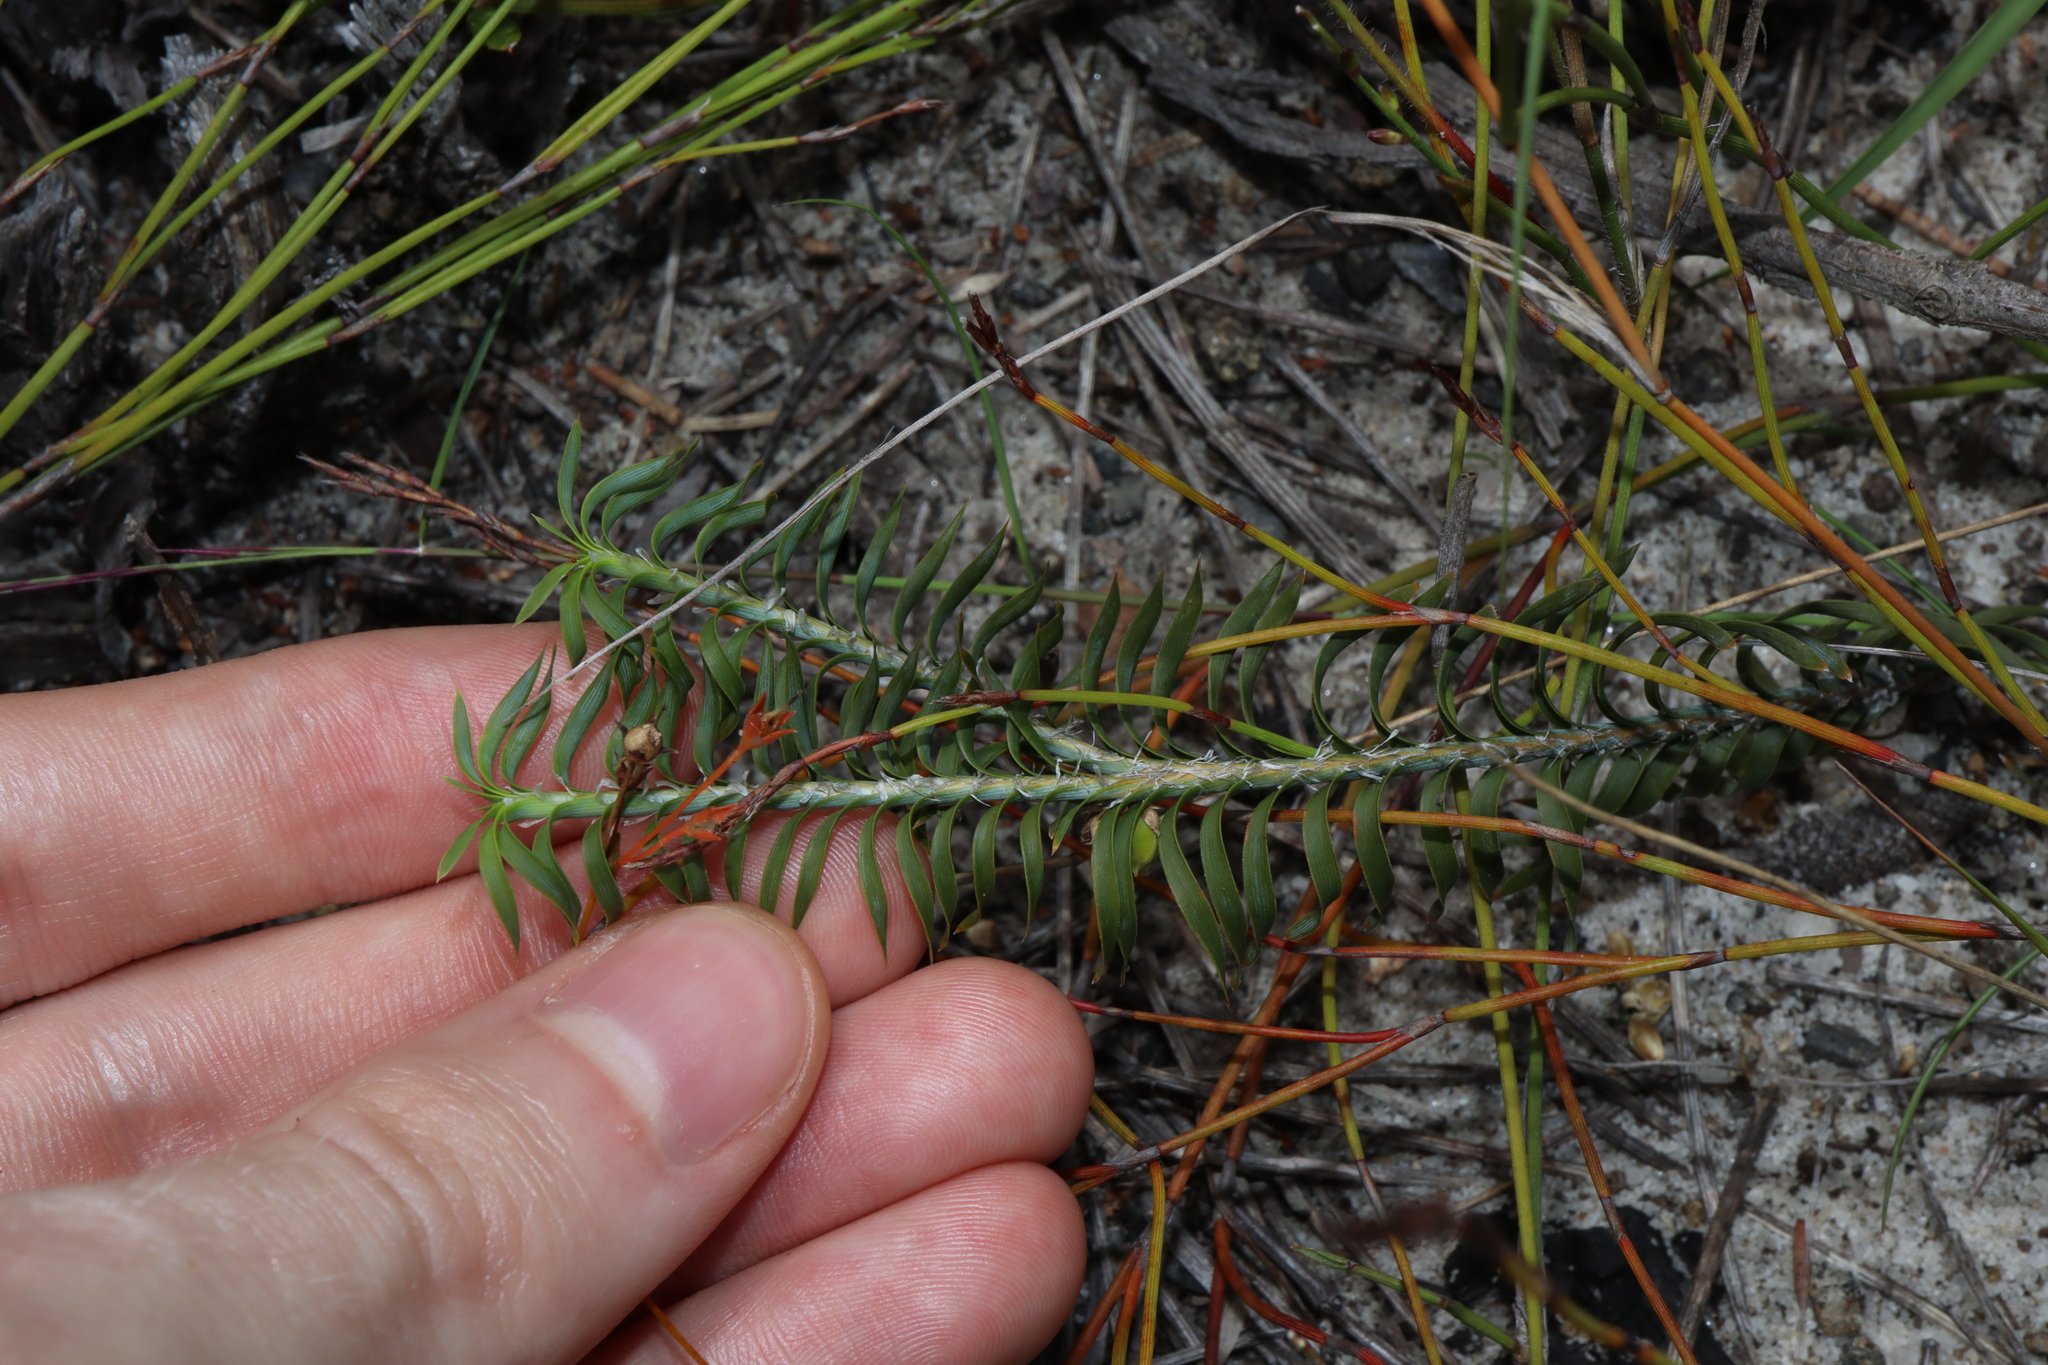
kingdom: Plantae
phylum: Tracheophyta
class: Liliopsida
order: Asparagales
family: Asparagaceae
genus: Lomandra
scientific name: Lomandra obliqua
